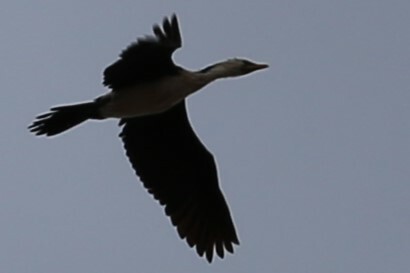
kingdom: Animalia
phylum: Chordata
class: Aves
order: Suliformes
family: Phalacrocoracidae
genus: Microcarbo
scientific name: Microcarbo melanoleucos
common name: Little pied cormorant
